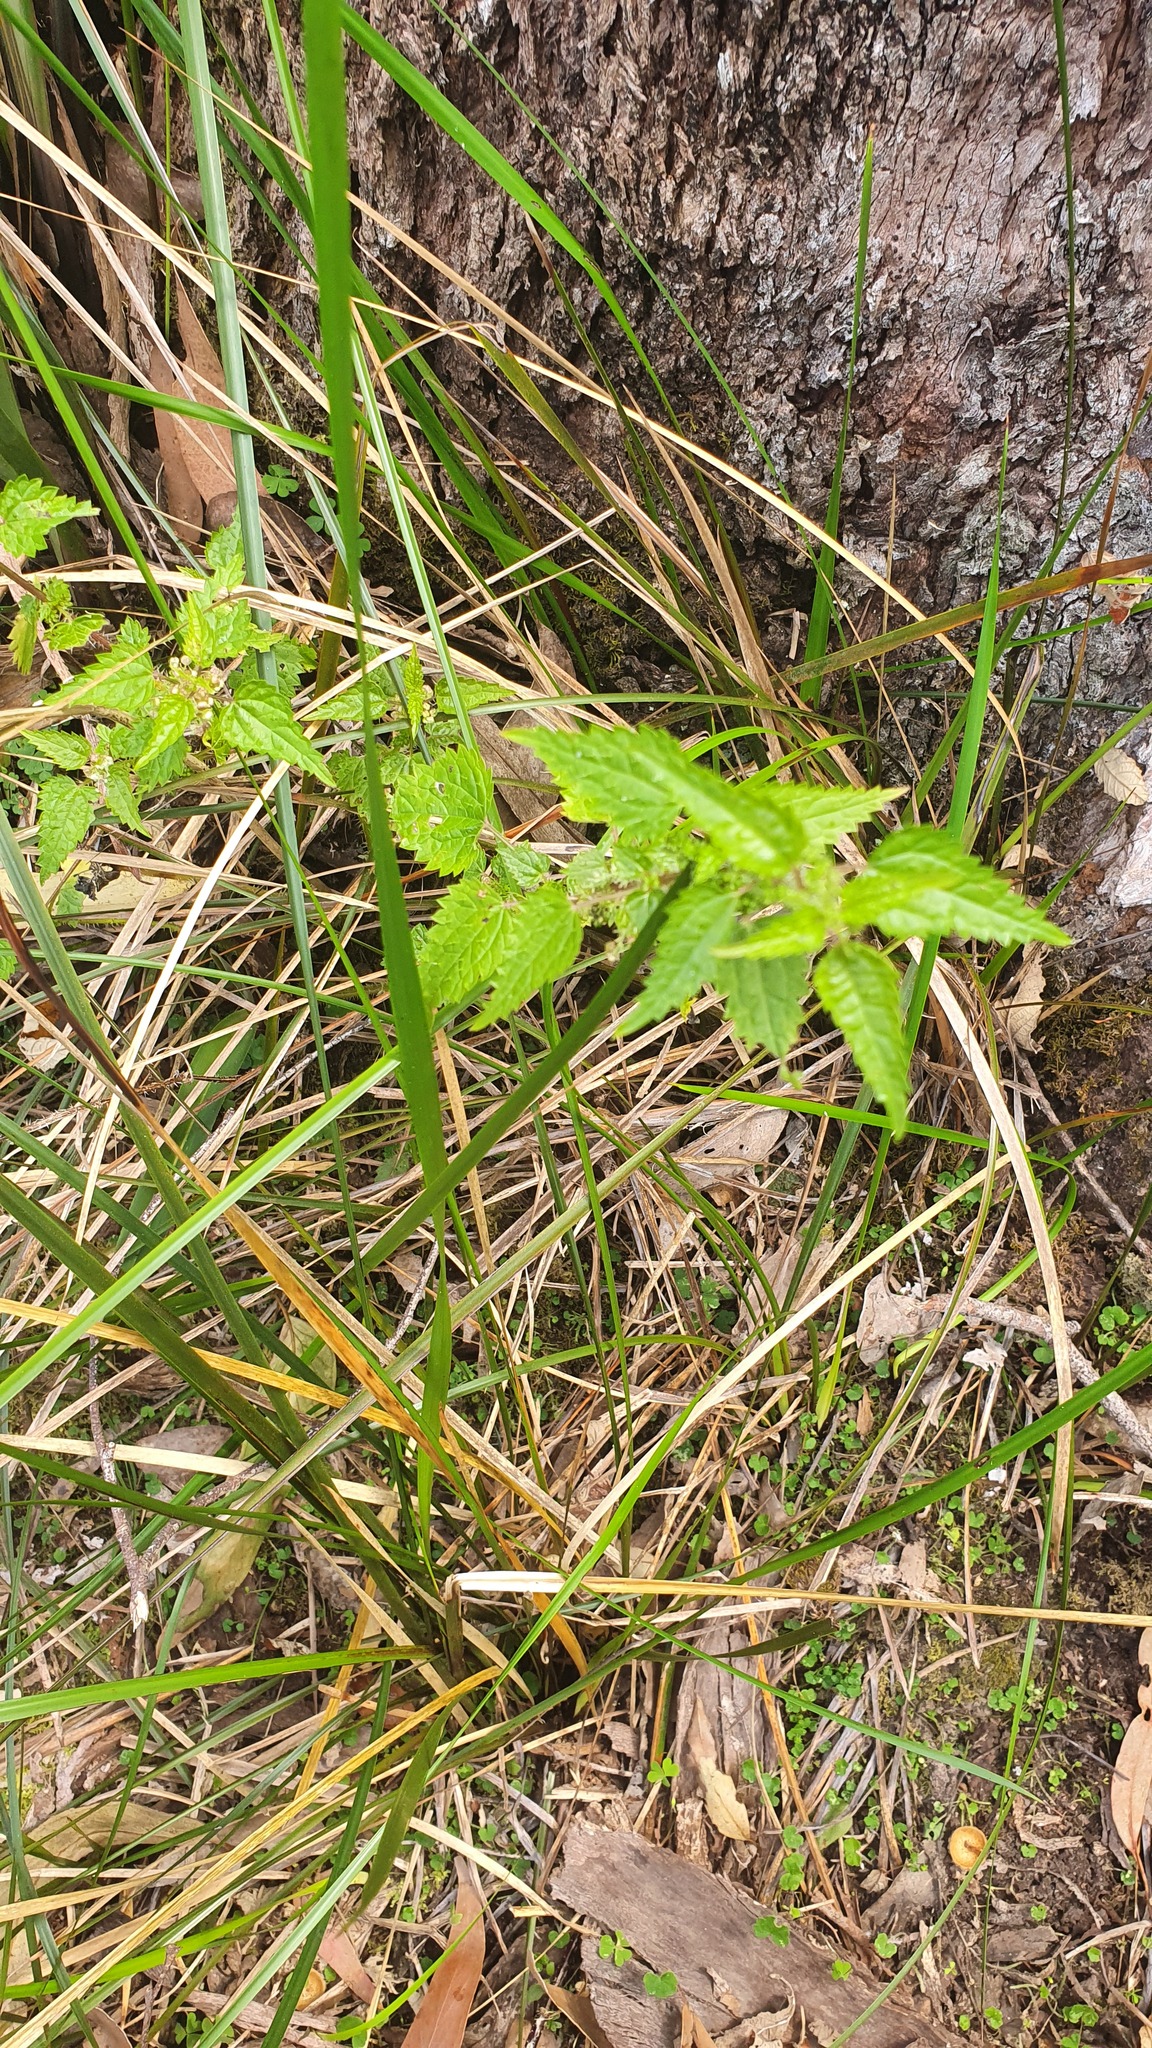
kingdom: Plantae
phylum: Tracheophyta
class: Magnoliopsida
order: Rosales
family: Urticaceae
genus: Urtica
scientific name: Urtica incisa
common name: Scrub nettle
